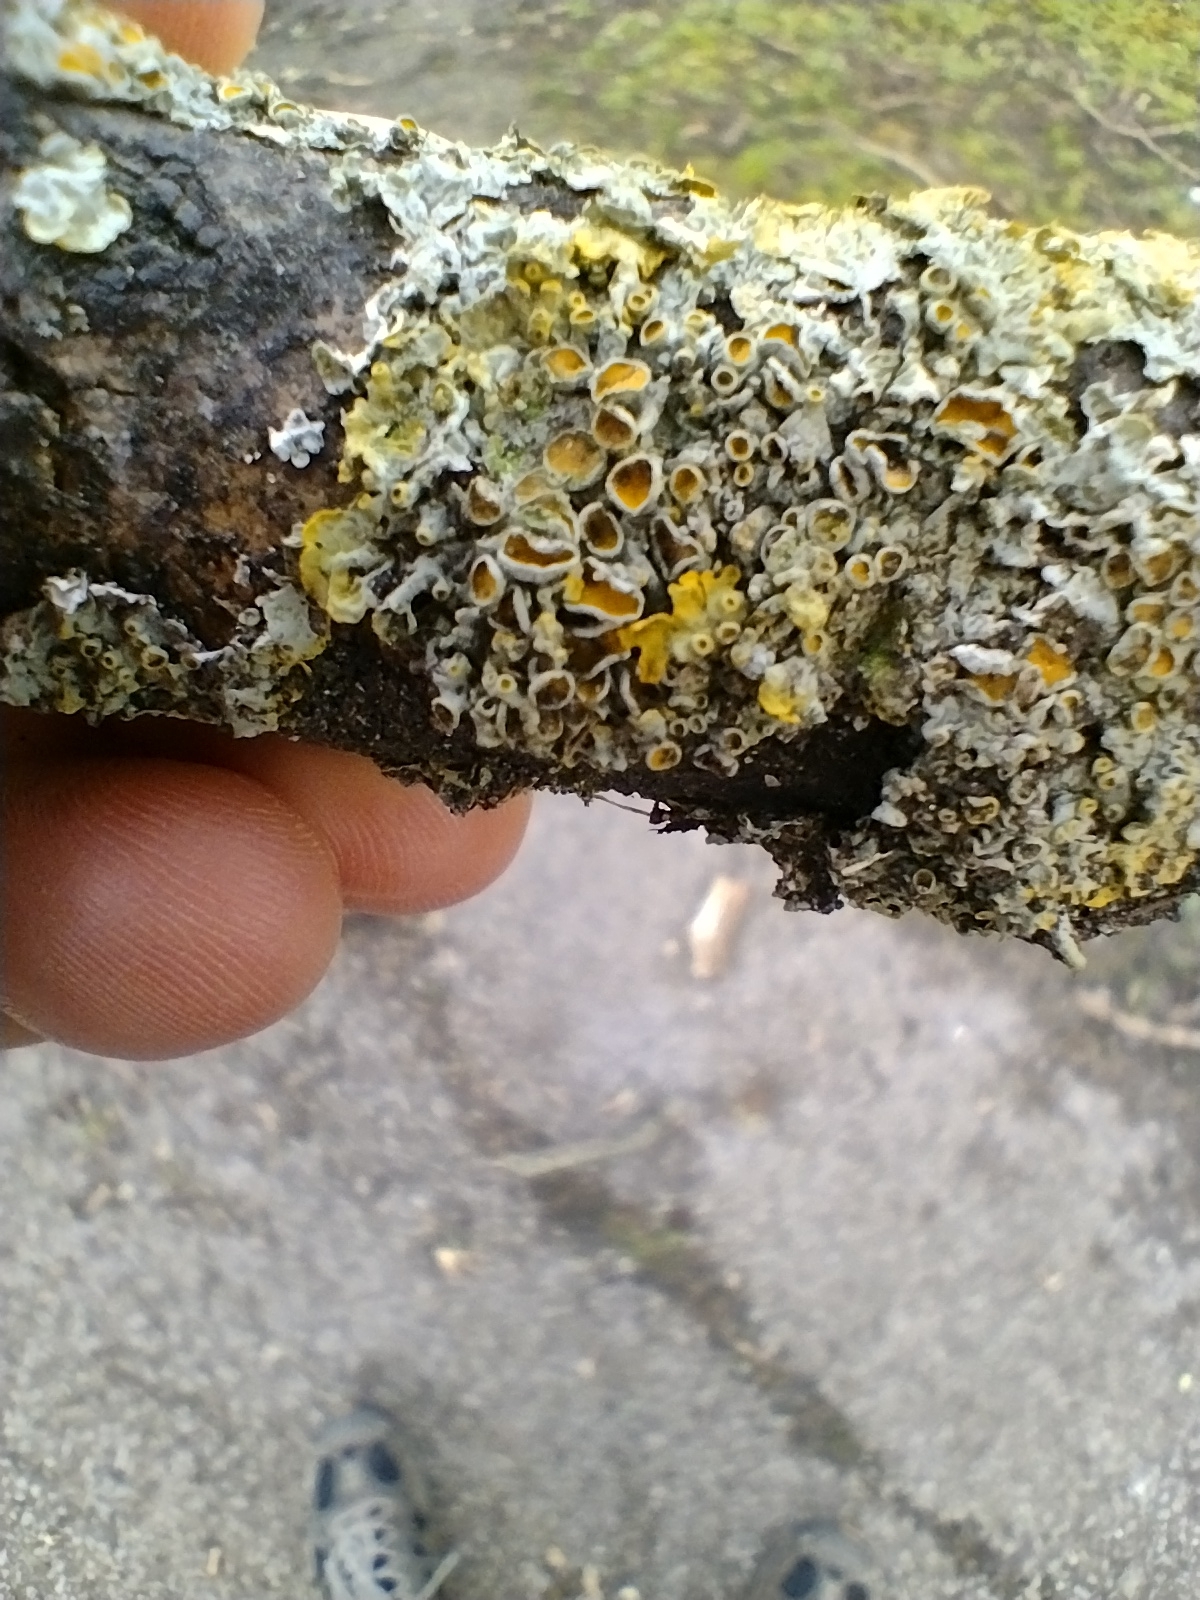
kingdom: Fungi
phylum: Ascomycota
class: Lecanoromycetes
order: Teloschistales
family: Teloschistaceae
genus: Xanthoria
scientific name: Xanthoria parietina
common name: Common orange lichen
